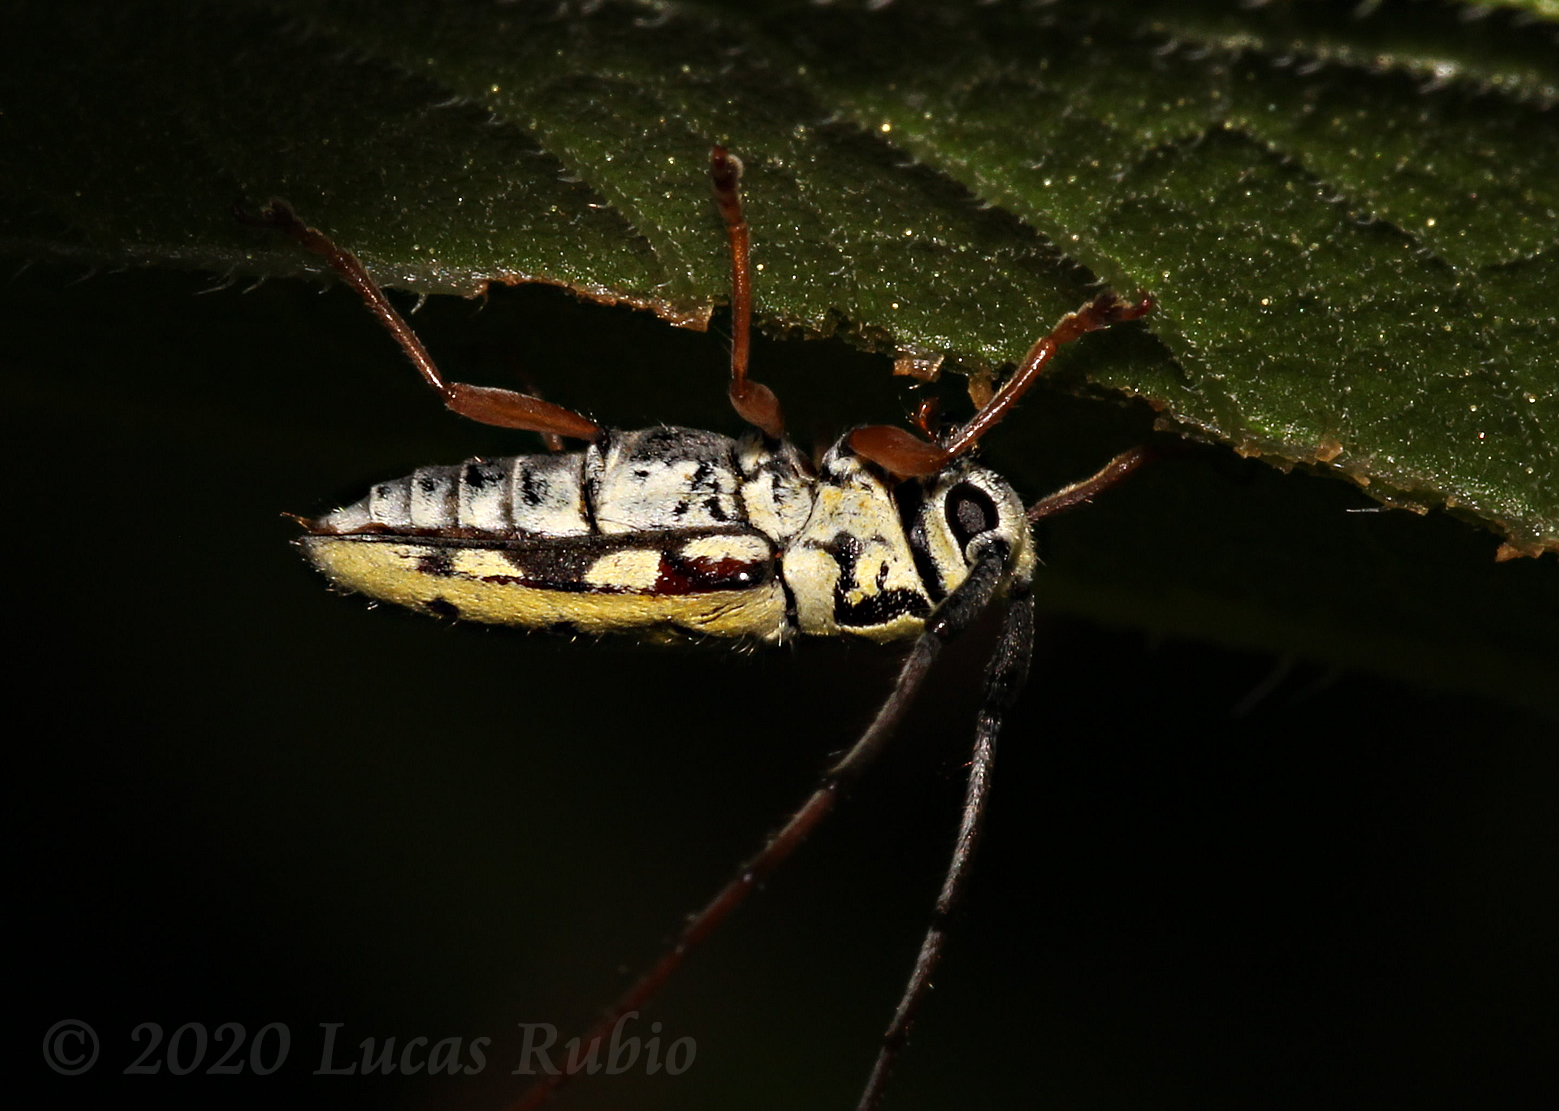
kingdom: Animalia
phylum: Arthropoda
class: Insecta
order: Coleoptera
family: Cerambycidae
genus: Zeale
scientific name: Zeale nigromaculata
